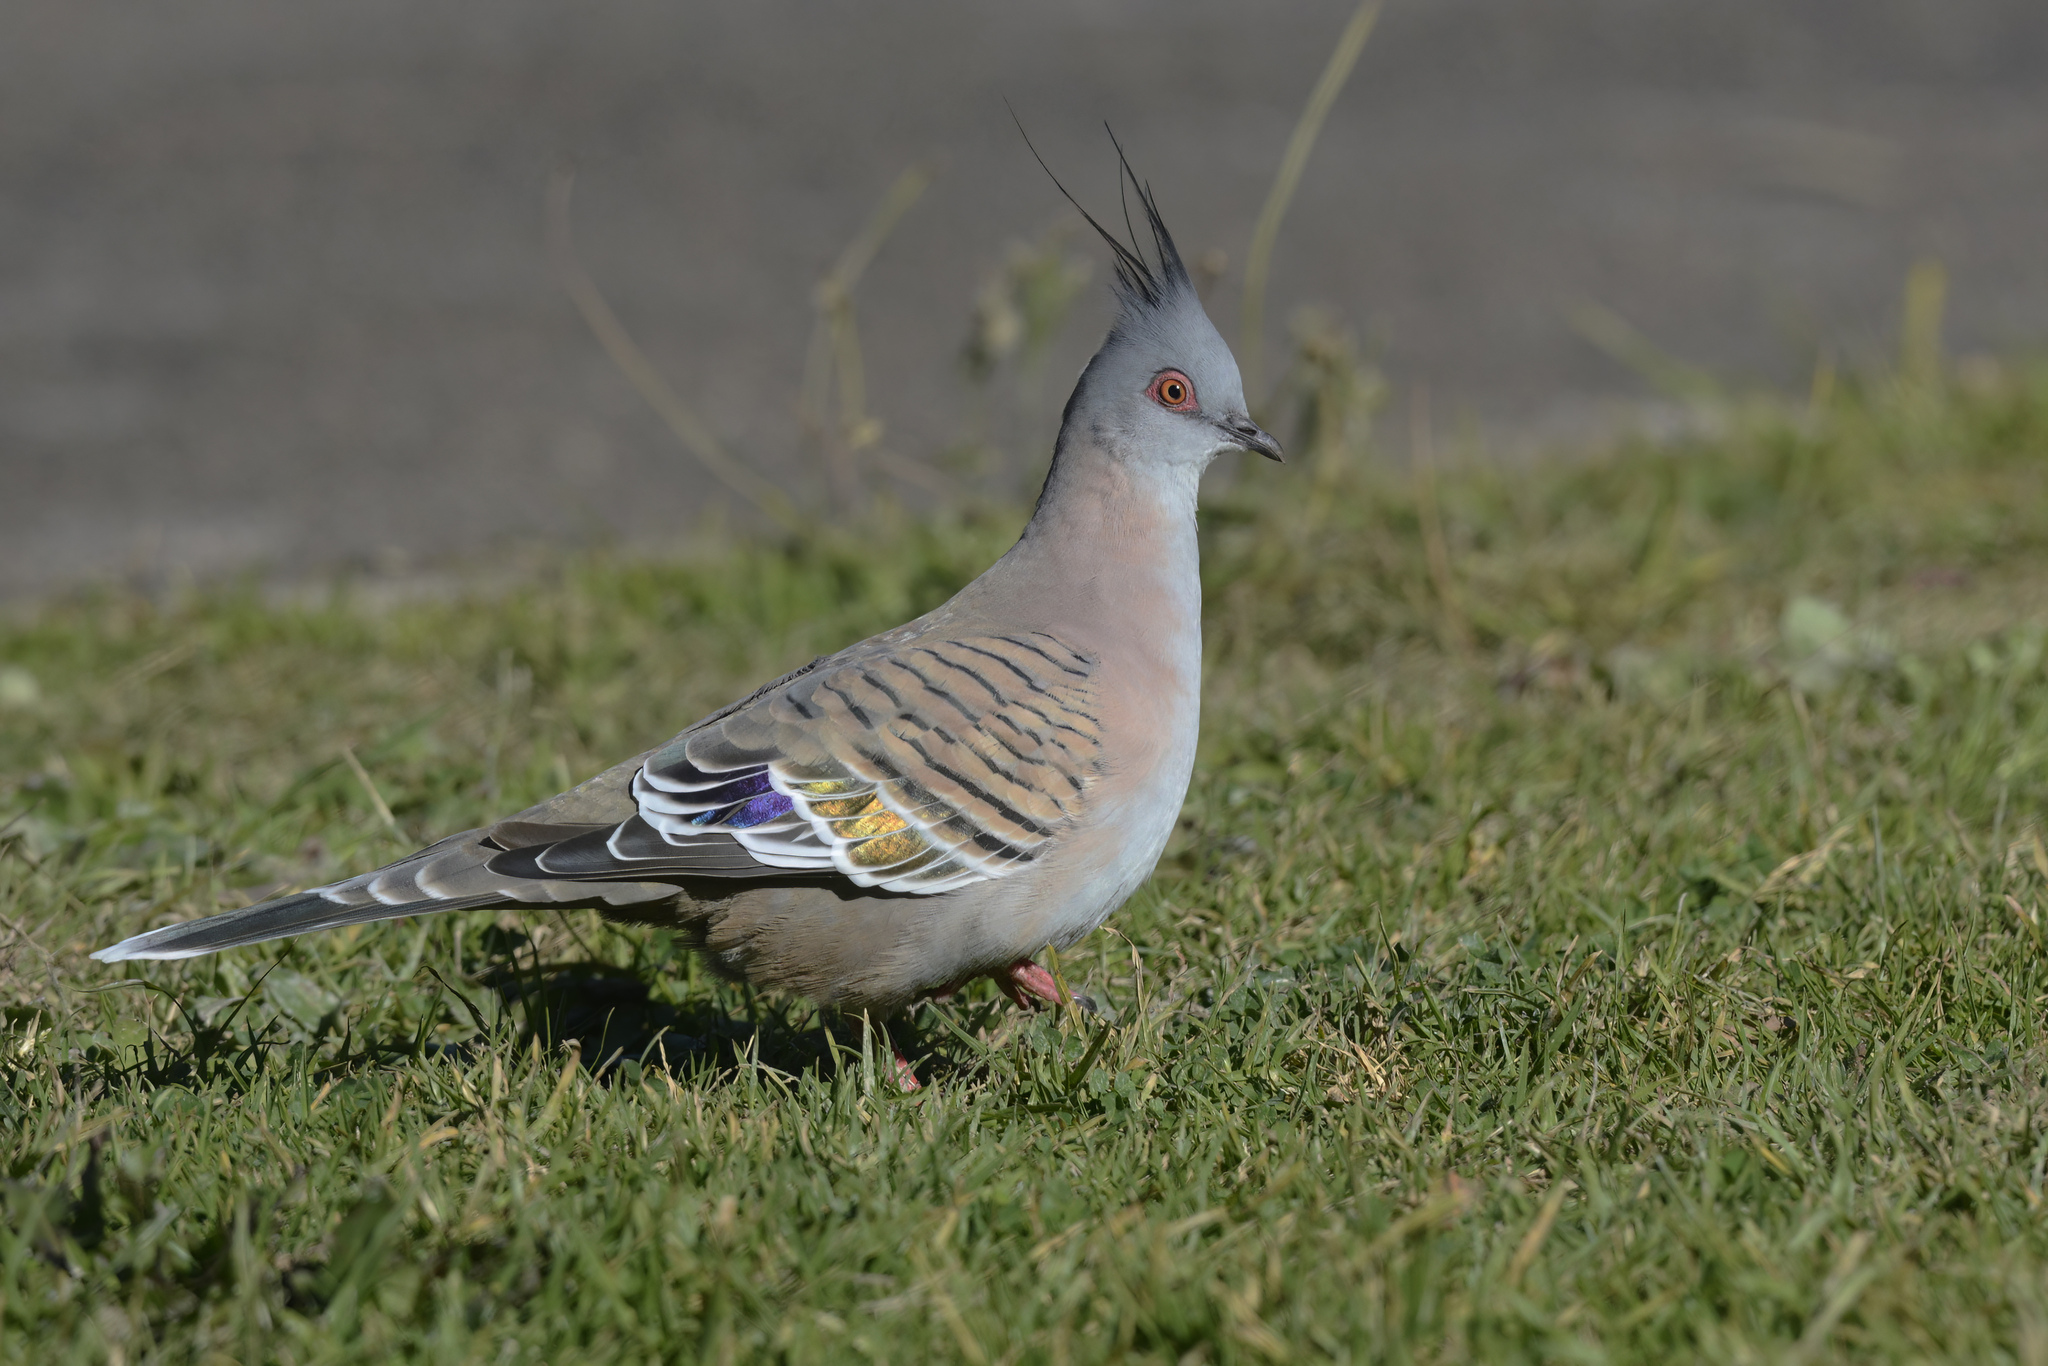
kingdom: Animalia
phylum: Chordata
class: Aves
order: Columbiformes
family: Columbidae
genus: Ocyphaps
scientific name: Ocyphaps lophotes
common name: Crested pigeon
